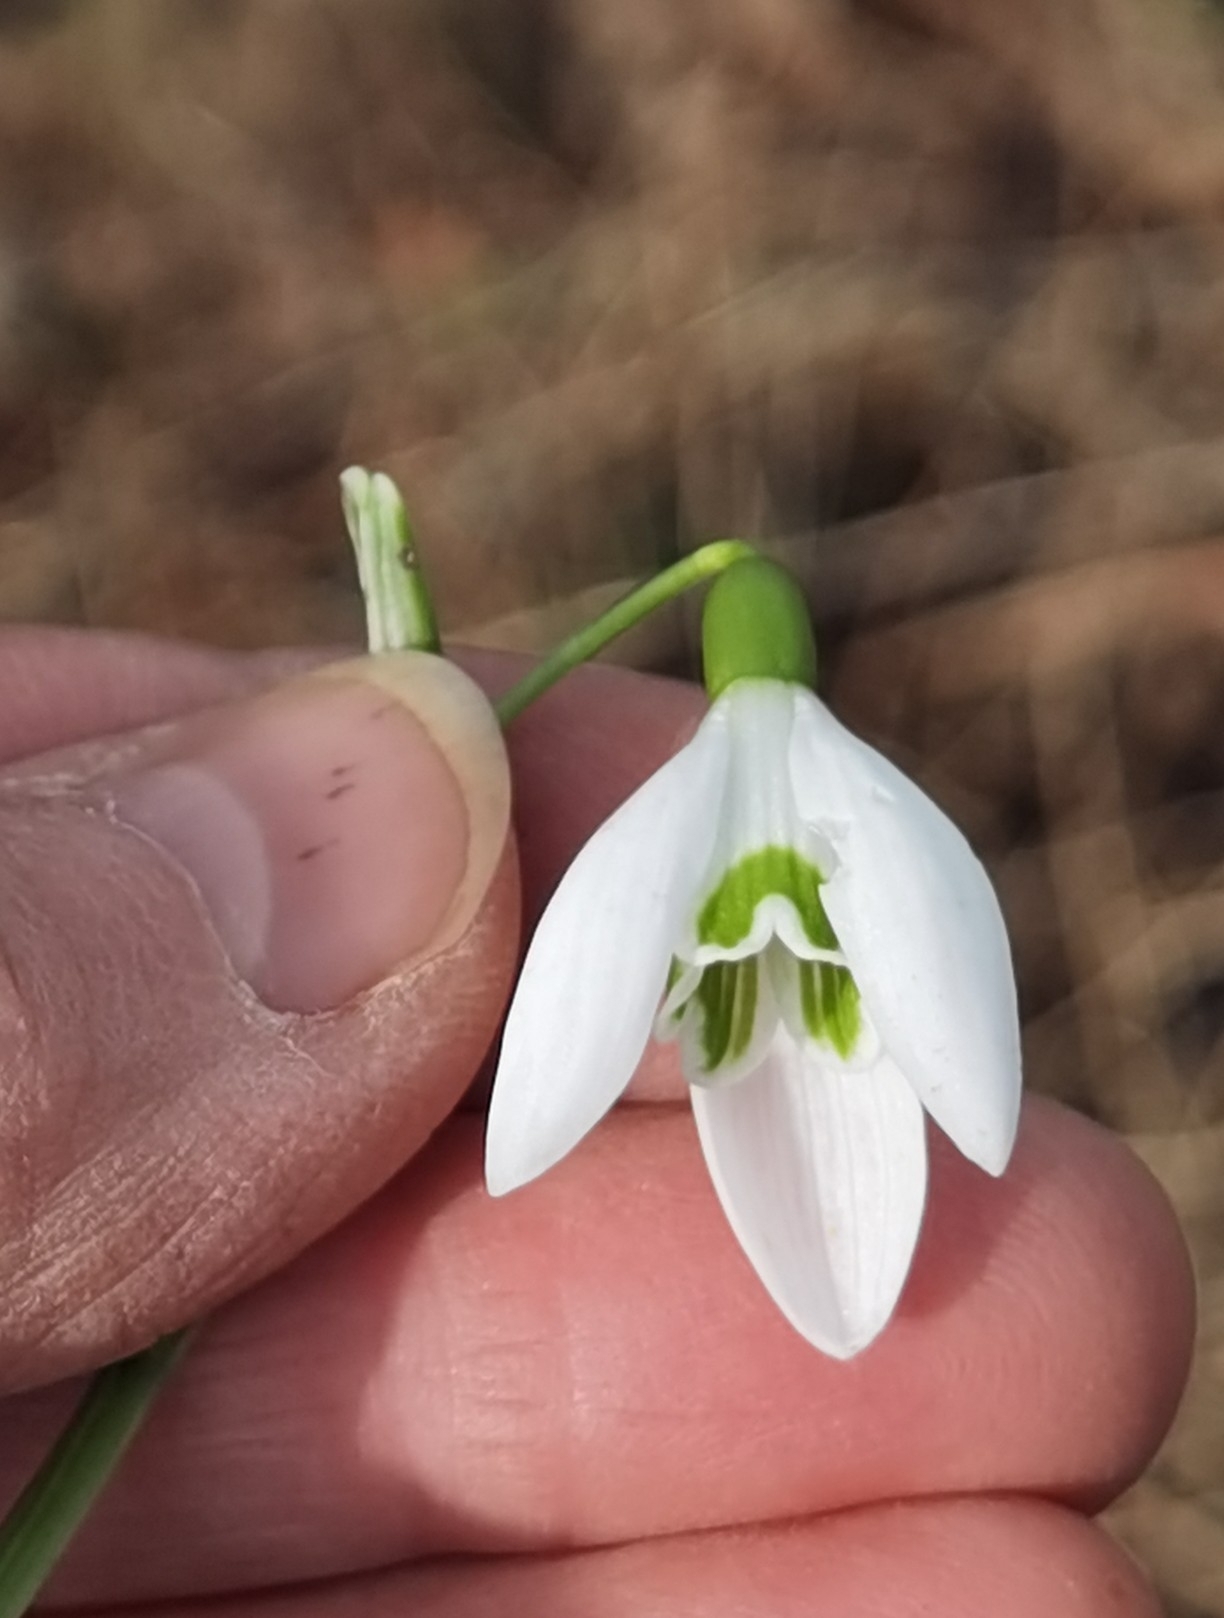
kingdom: Plantae
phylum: Tracheophyta
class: Liliopsida
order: Asparagales
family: Amaryllidaceae
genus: Galanthus
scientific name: Galanthus nivalis
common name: Snowdrop
